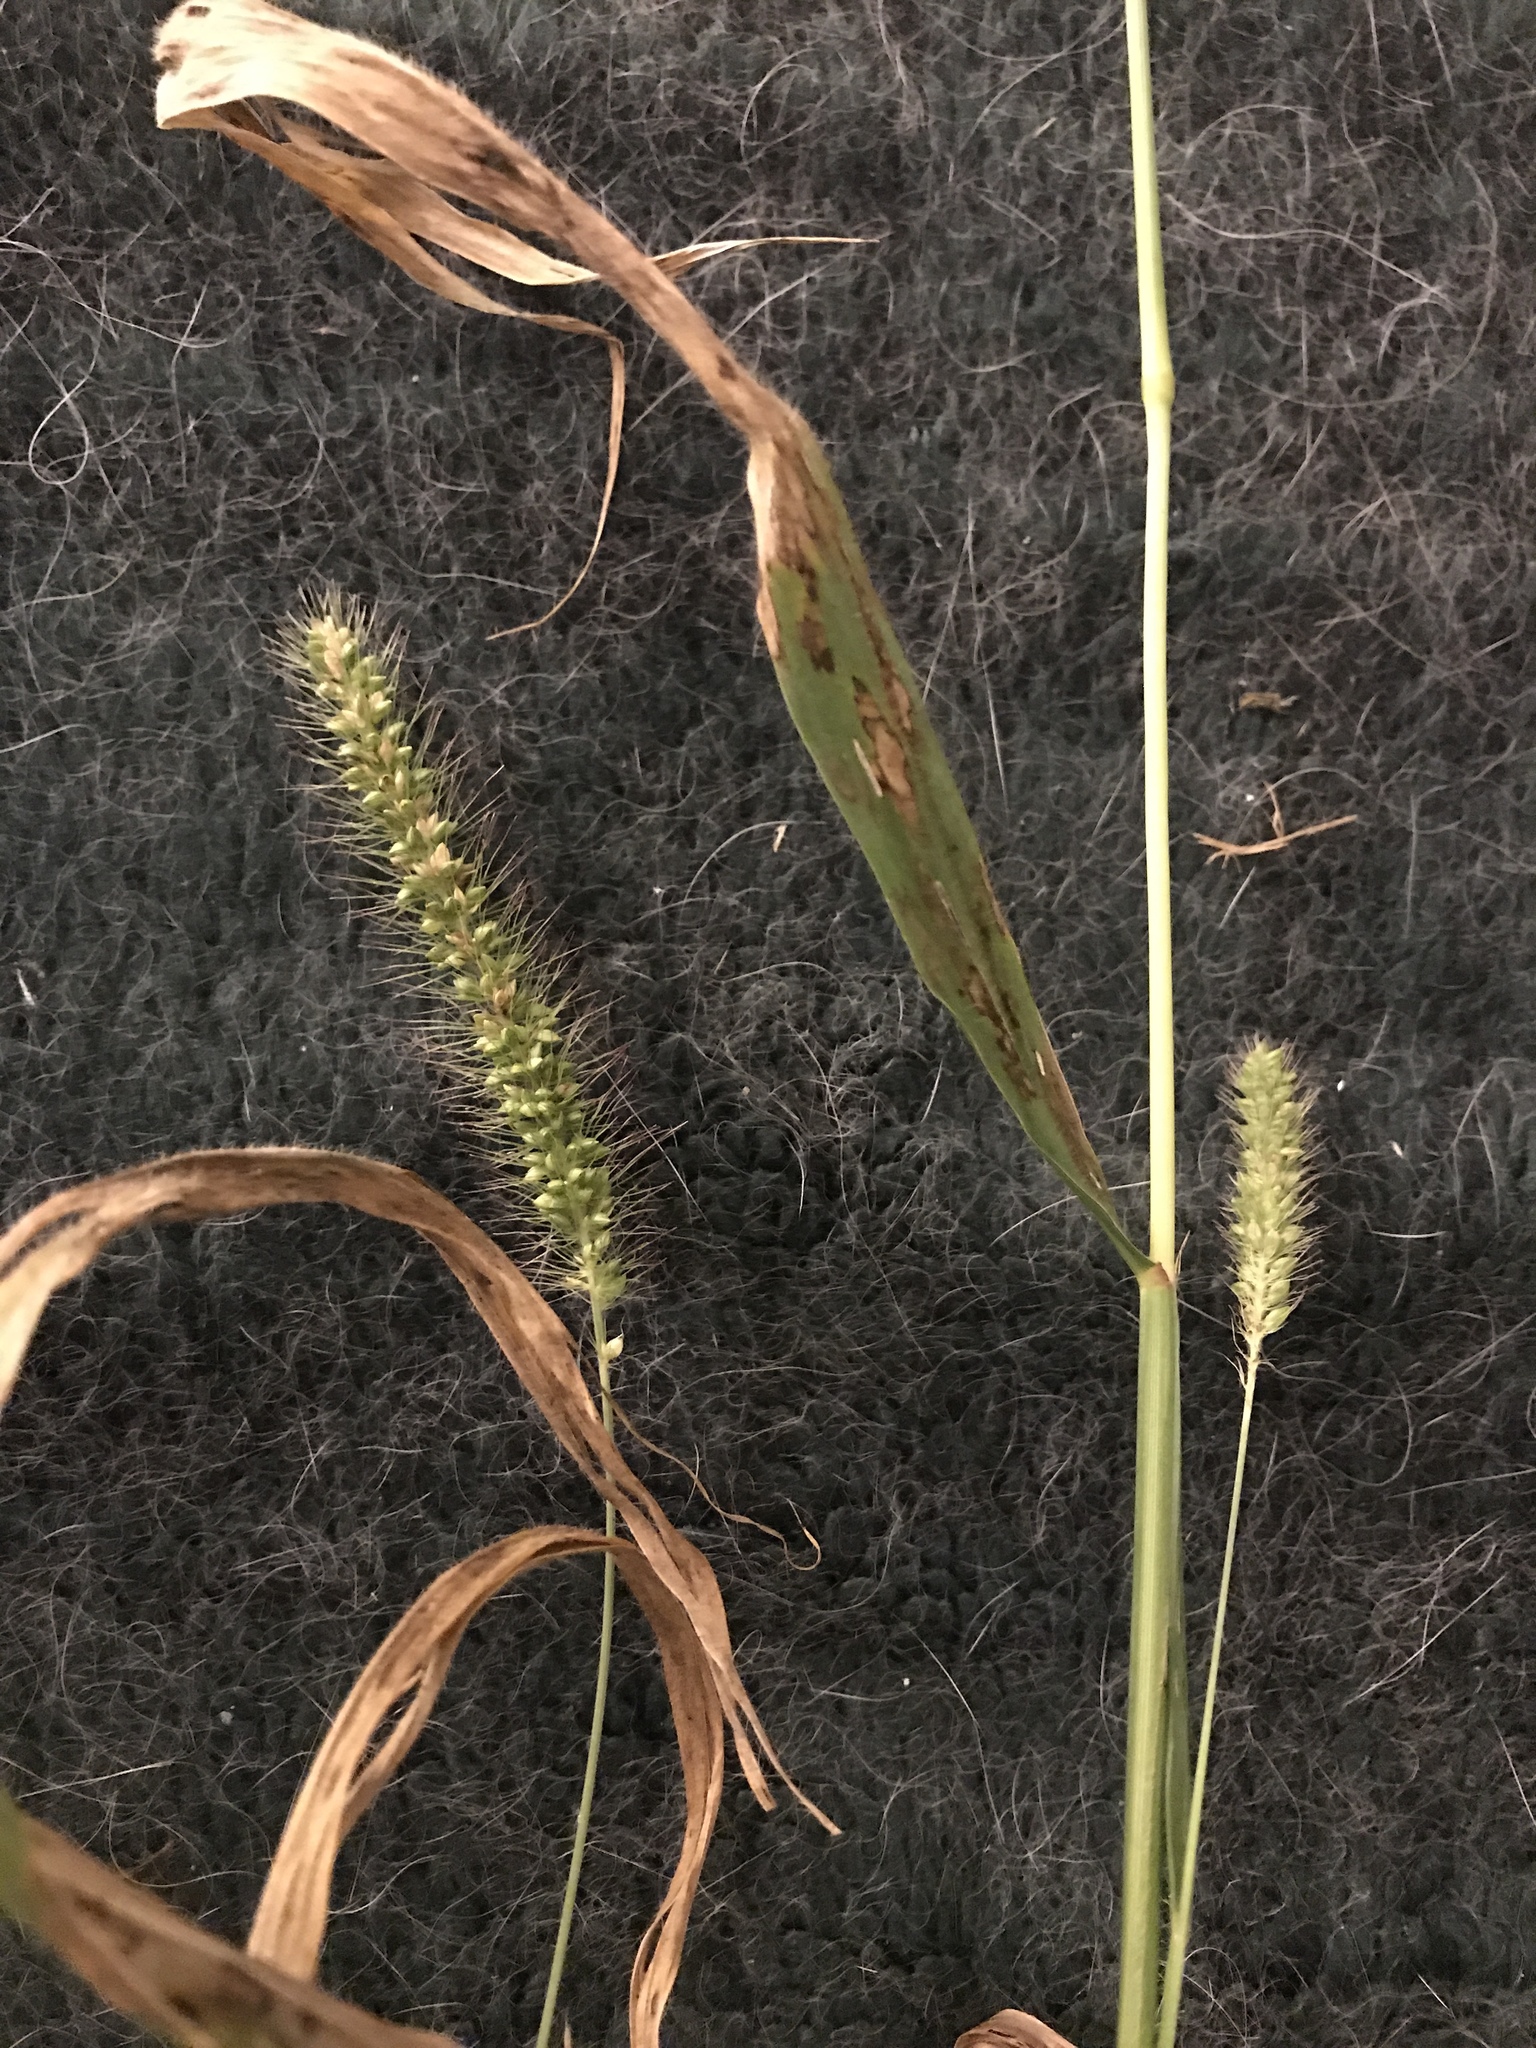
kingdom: Plantae
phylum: Tracheophyta
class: Liliopsida
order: Poales
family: Poaceae
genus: Setaria
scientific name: Setaria faberi
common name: Nodding bristle-grass
